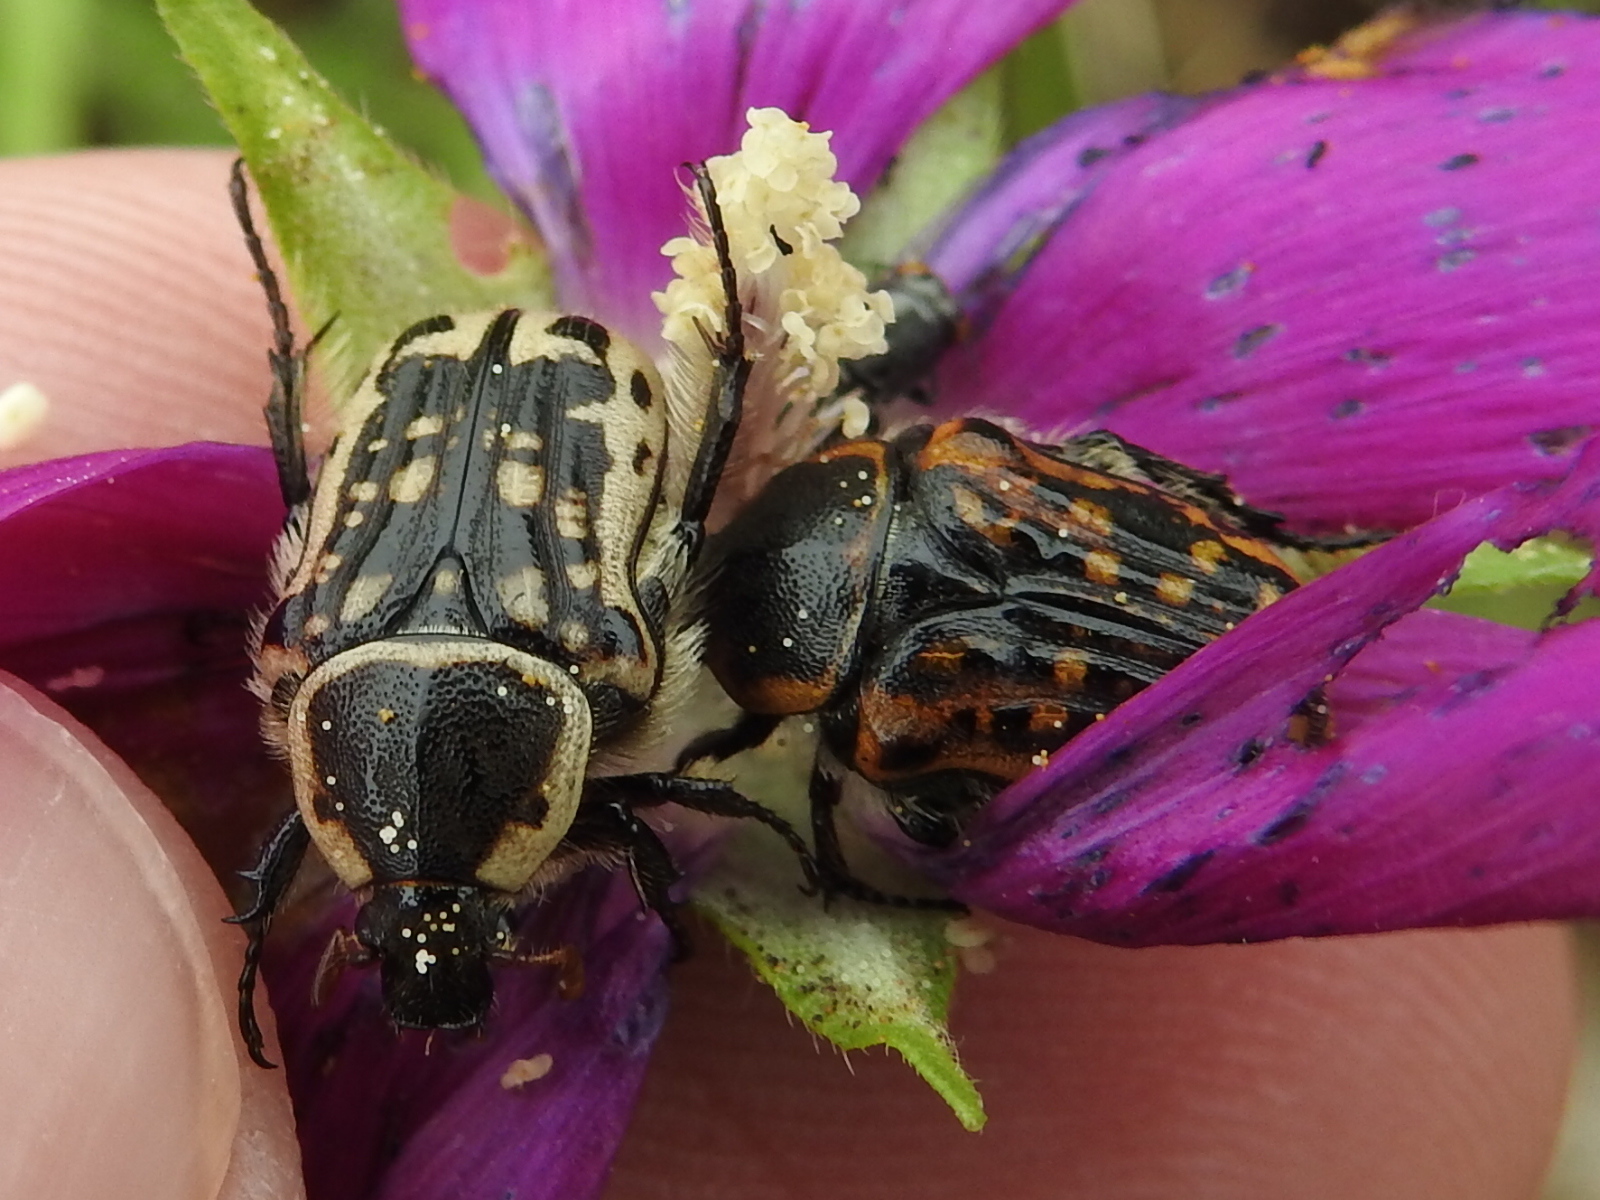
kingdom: Animalia
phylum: Arthropoda
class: Insecta
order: Coleoptera
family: Scarabaeidae
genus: Euphoria
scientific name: Euphoria kernii
